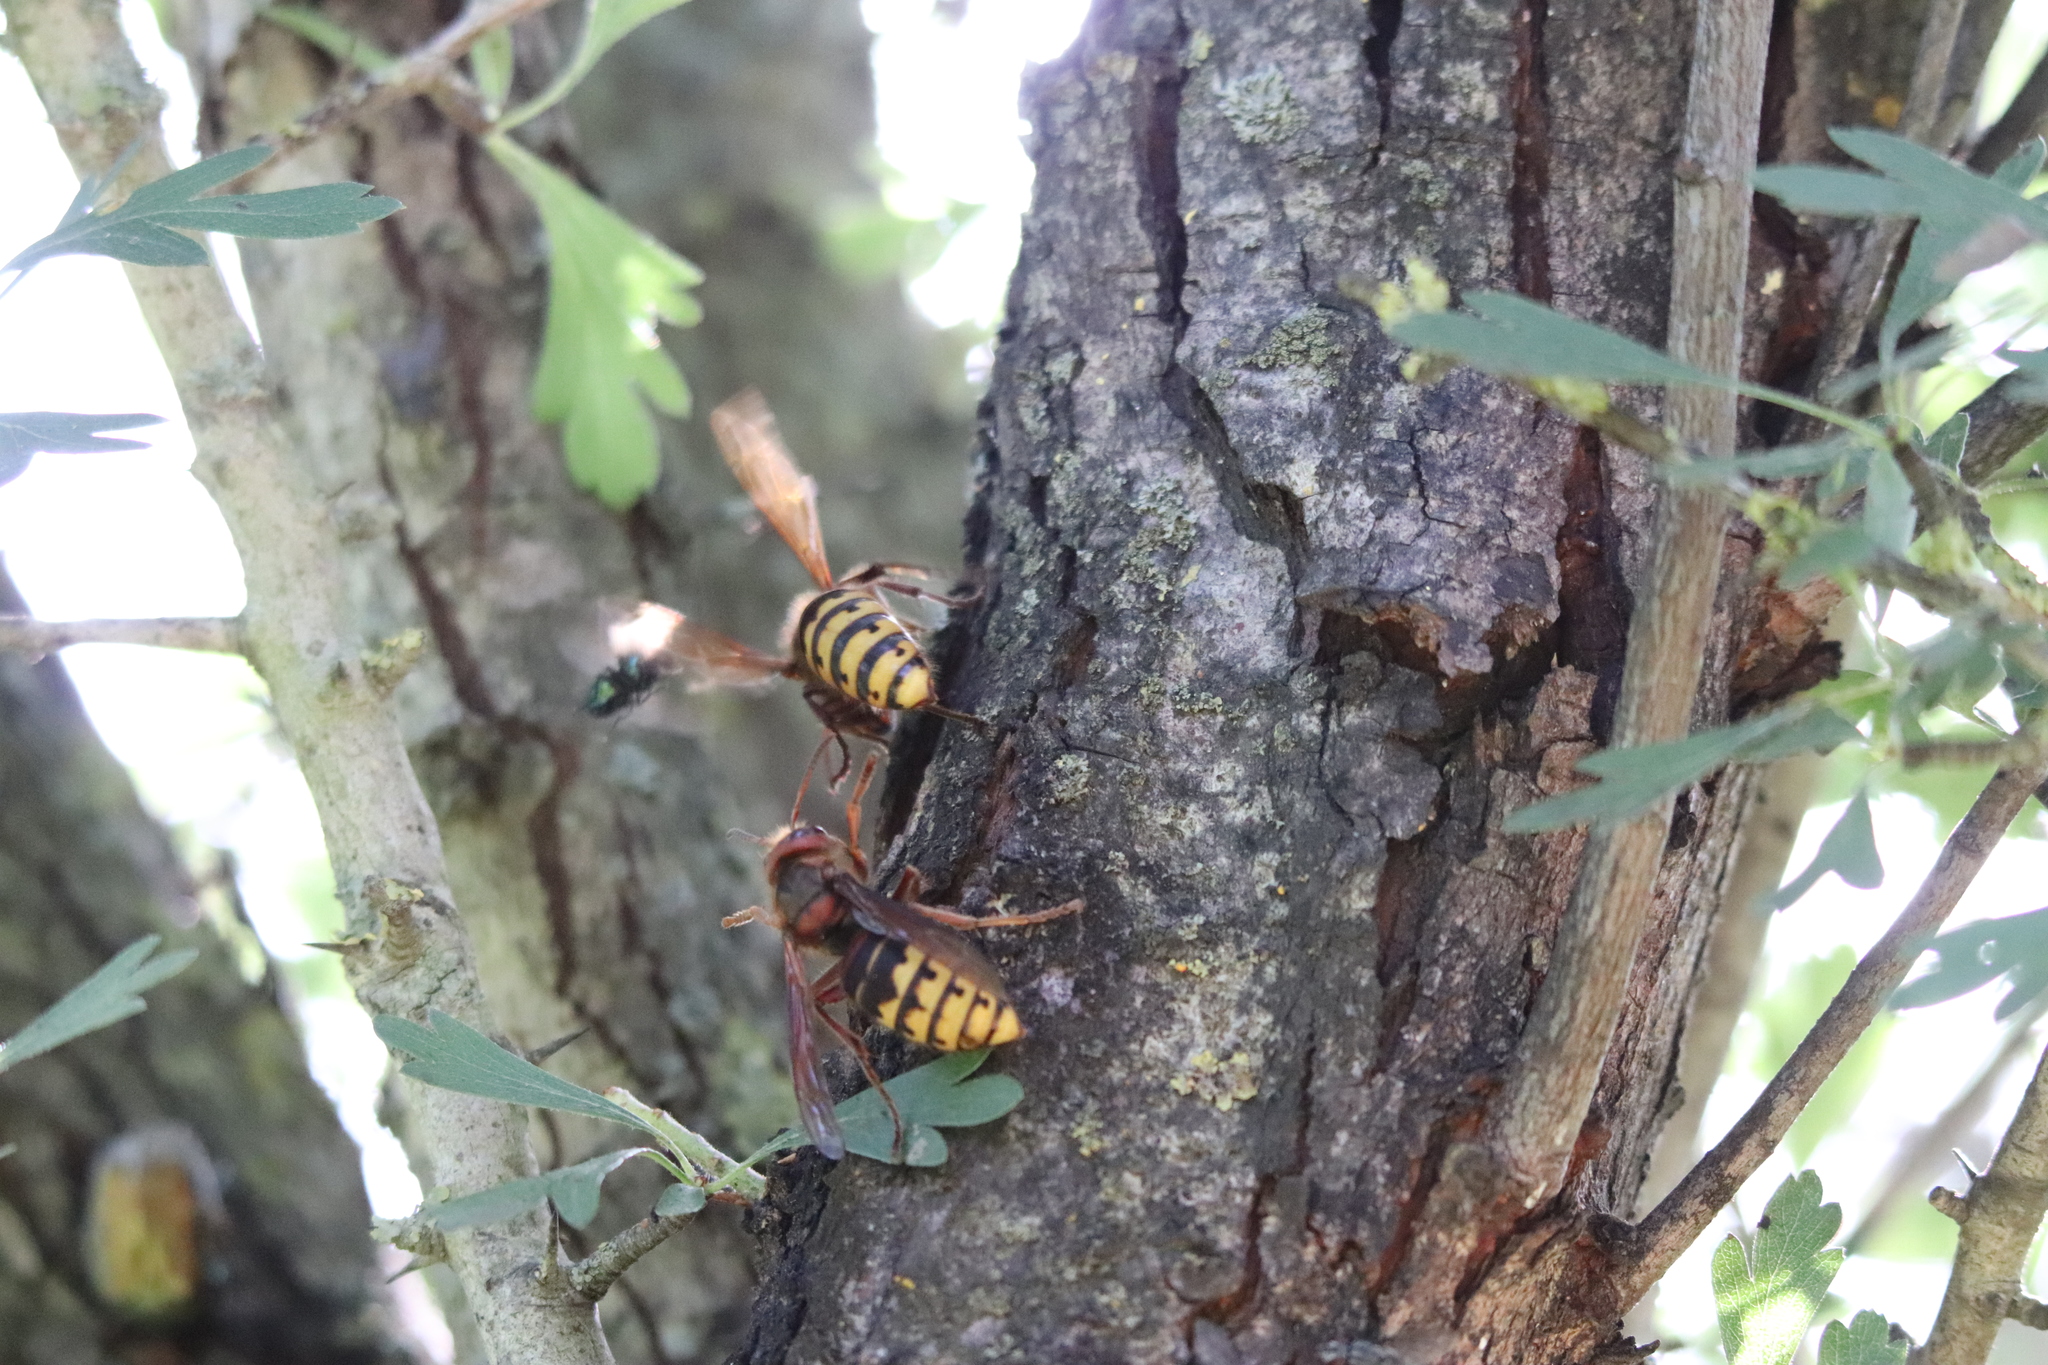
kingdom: Animalia
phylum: Arthropoda
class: Insecta
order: Hymenoptera
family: Vespidae
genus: Vespa
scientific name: Vespa crabro
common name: Hornet
